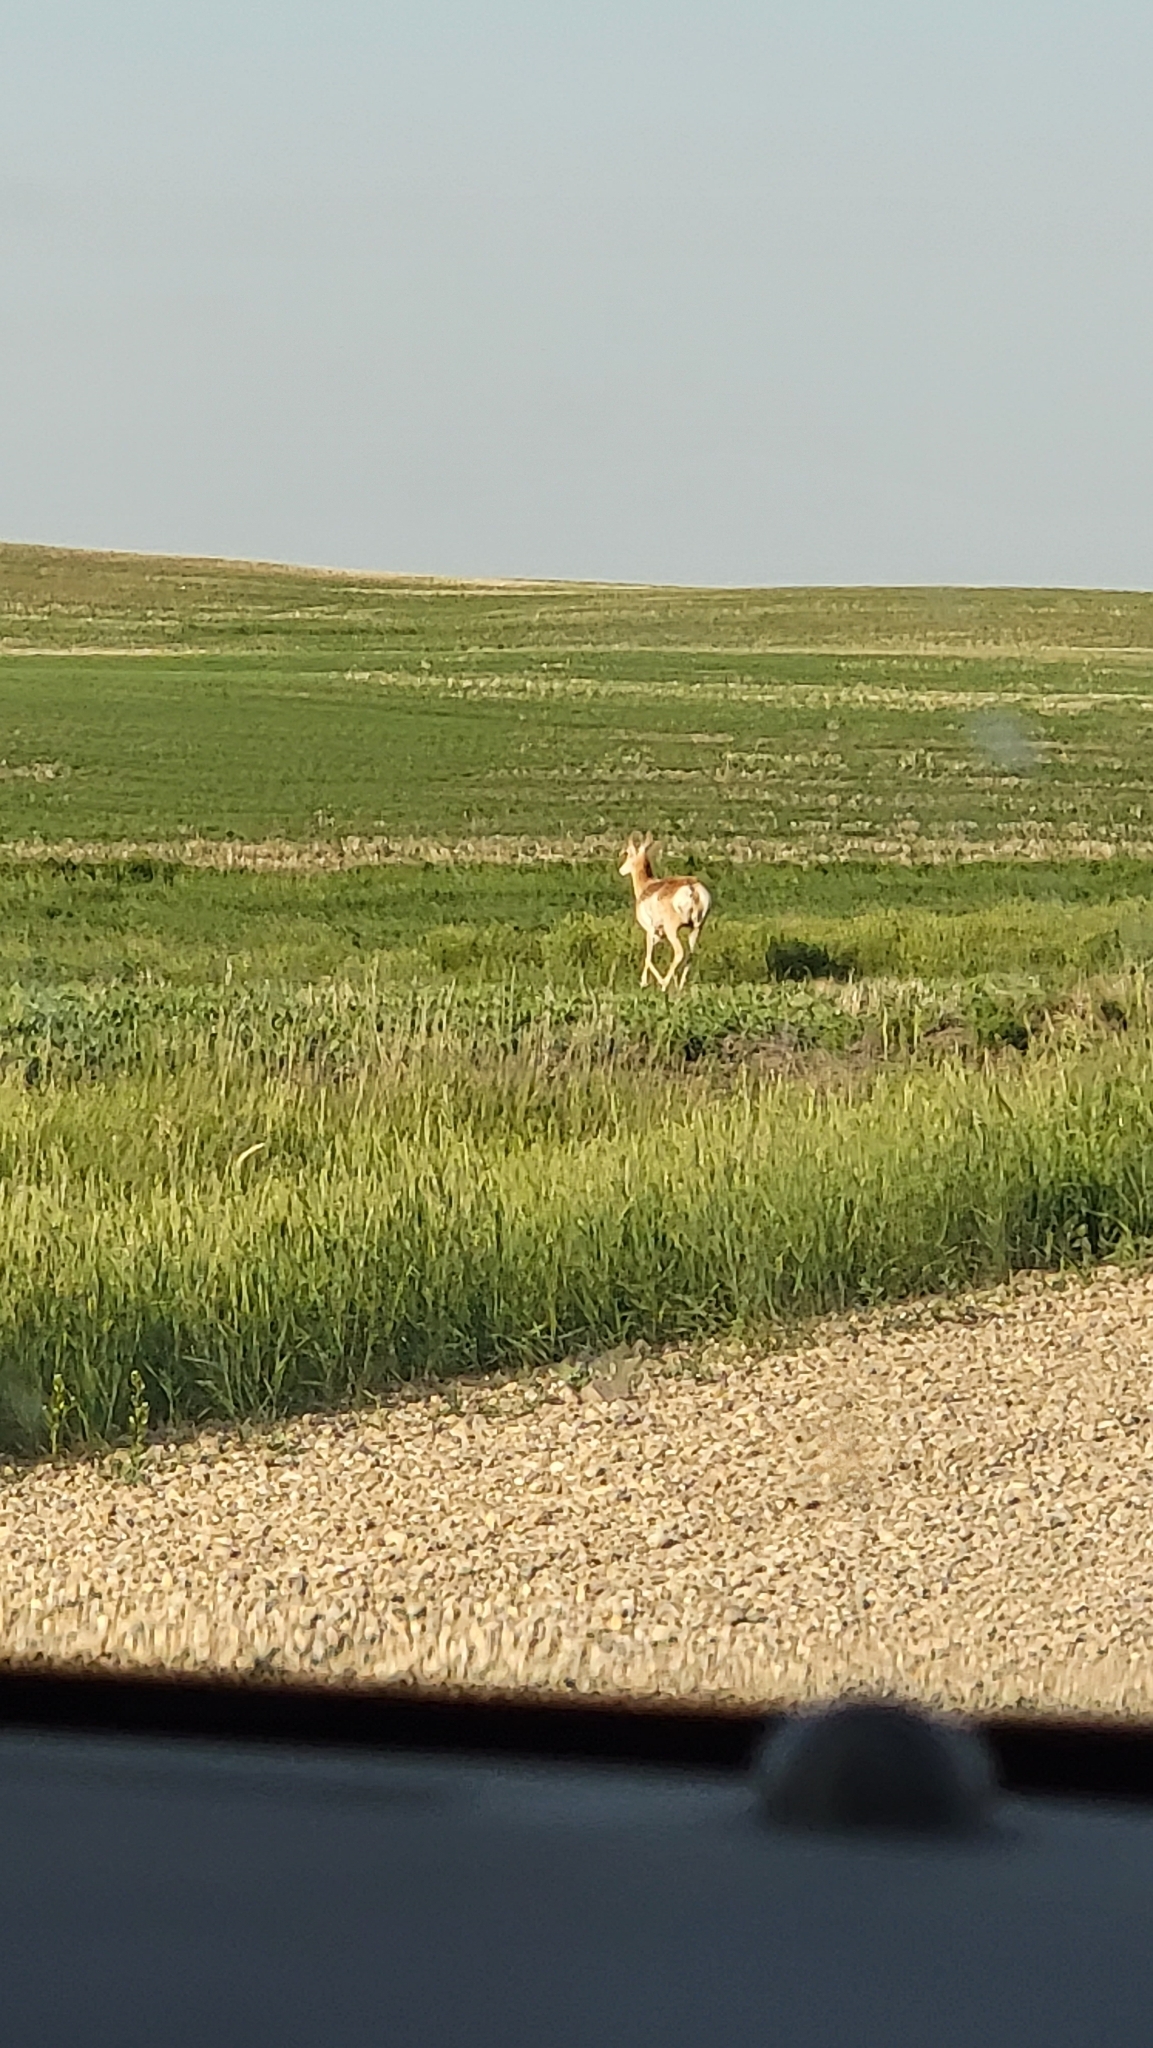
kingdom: Animalia
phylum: Chordata
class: Mammalia
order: Artiodactyla
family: Antilocapridae
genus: Antilocapra
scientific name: Antilocapra americana
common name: Pronghorn
